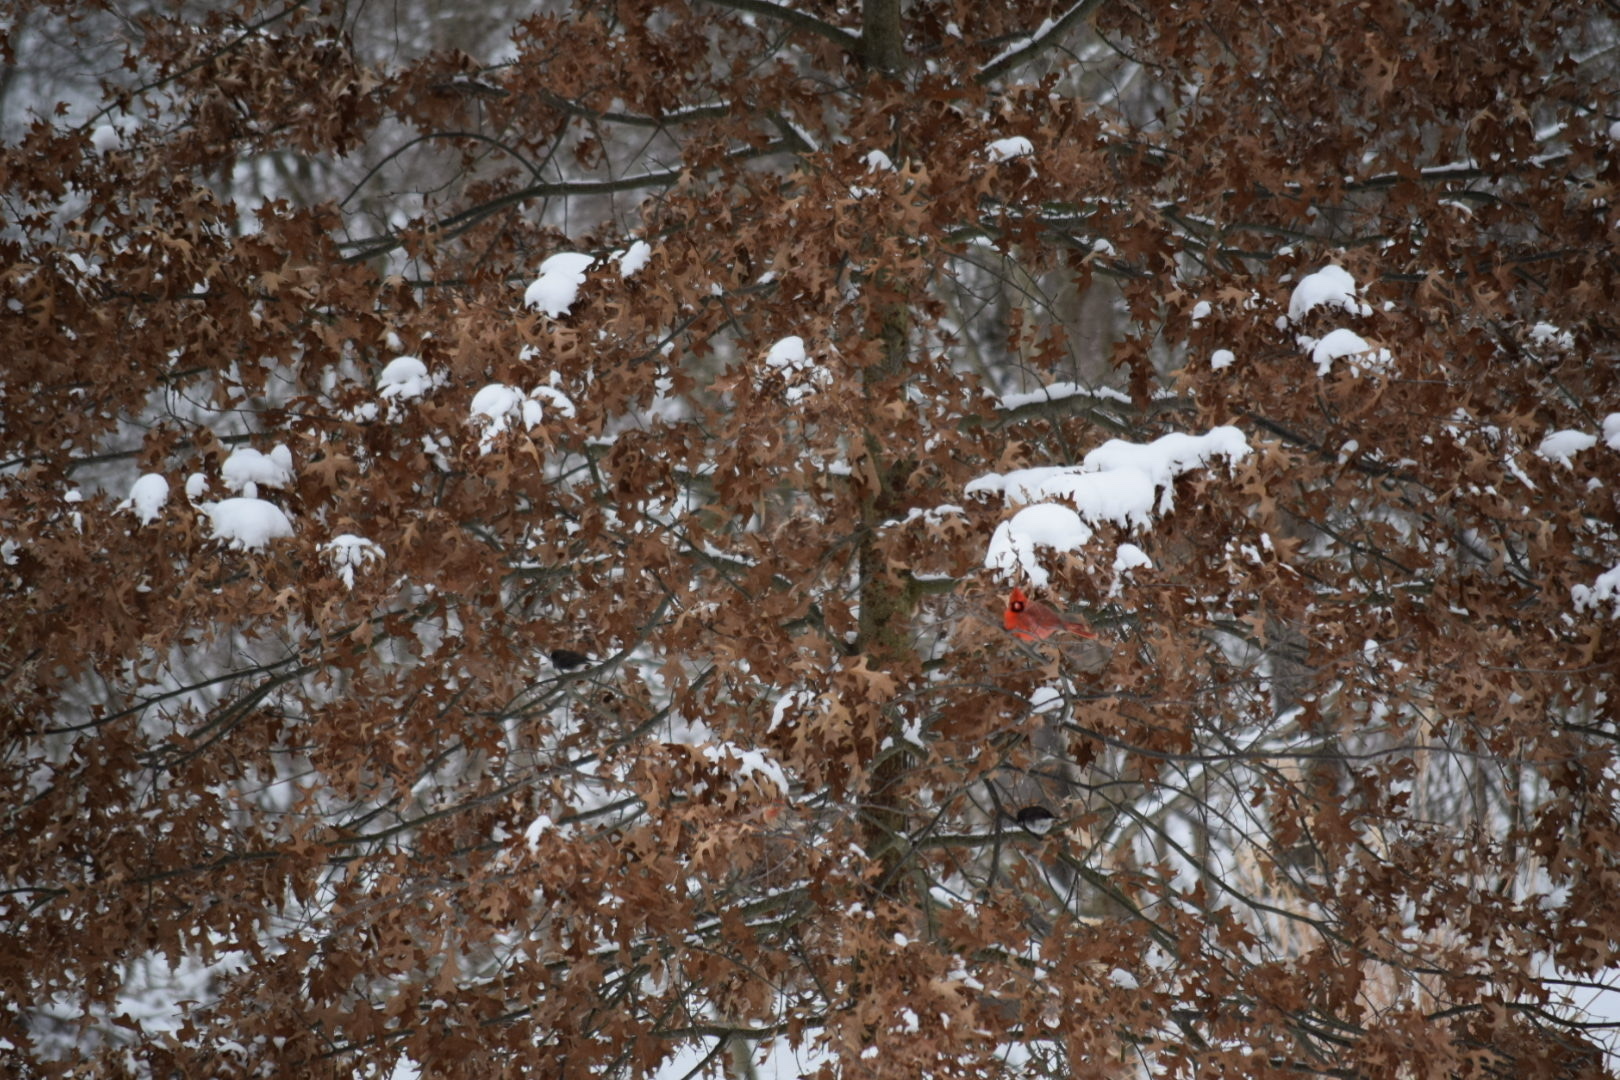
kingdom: Animalia
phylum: Chordata
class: Aves
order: Passeriformes
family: Cardinalidae
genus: Cardinalis
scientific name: Cardinalis cardinalis
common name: Northern cardinal
